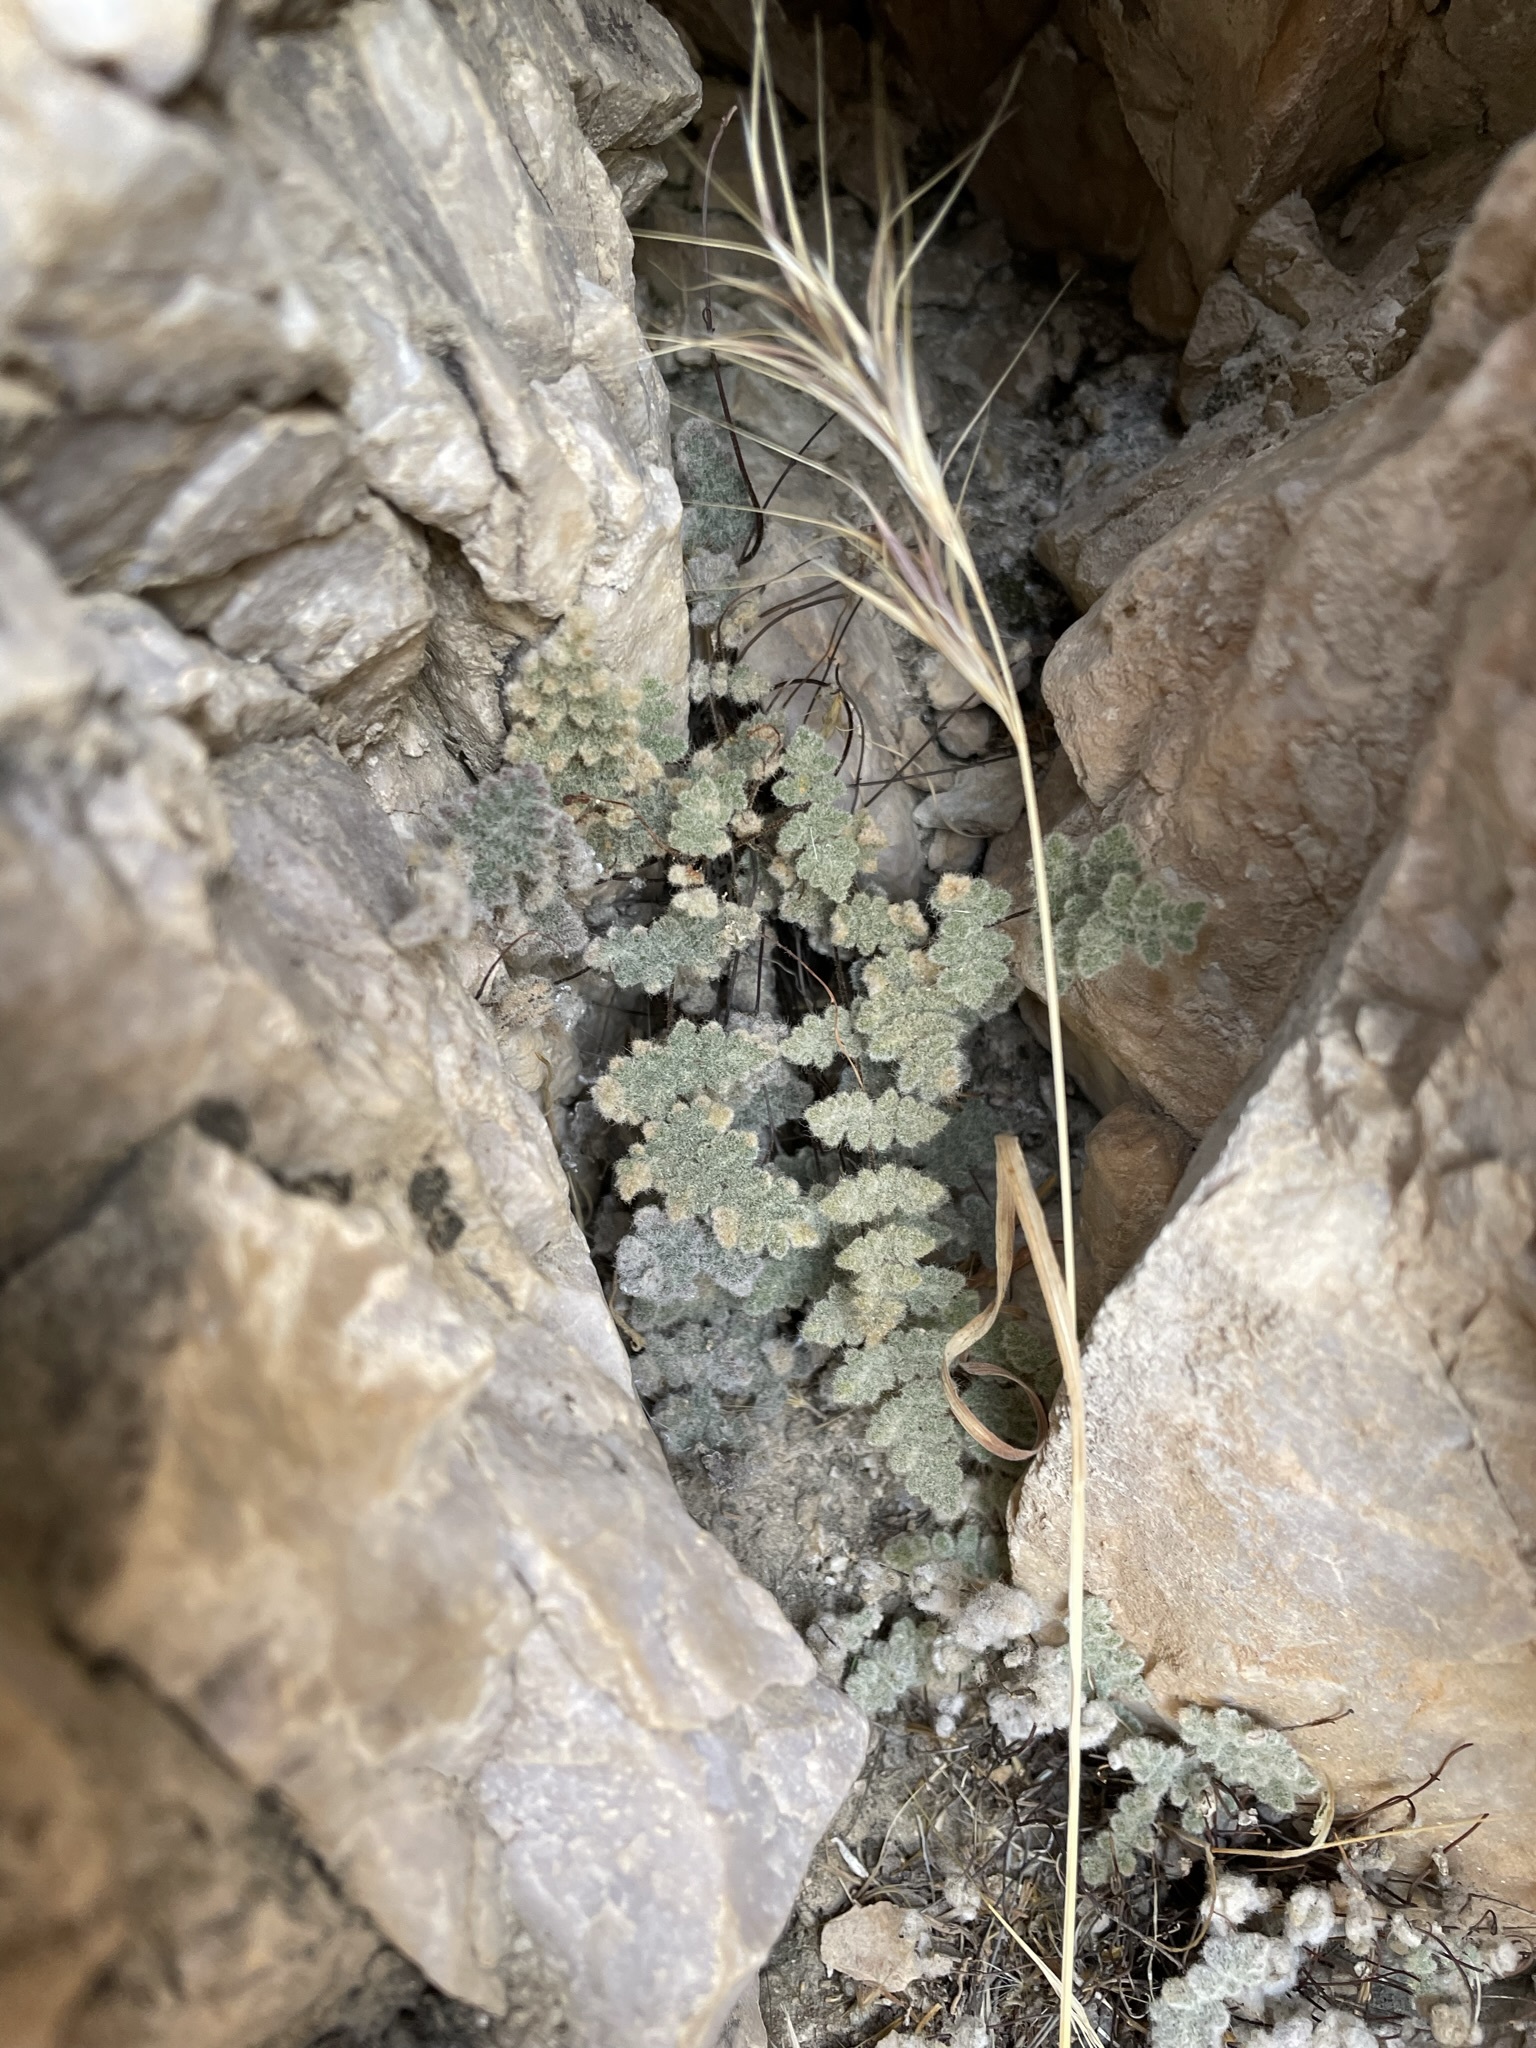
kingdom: Plantae
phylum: Tracheophyta
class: Polypodiopsida
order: Polypodiales
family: Pteridaceae
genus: Myriopteris
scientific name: Myriopteris parryi
